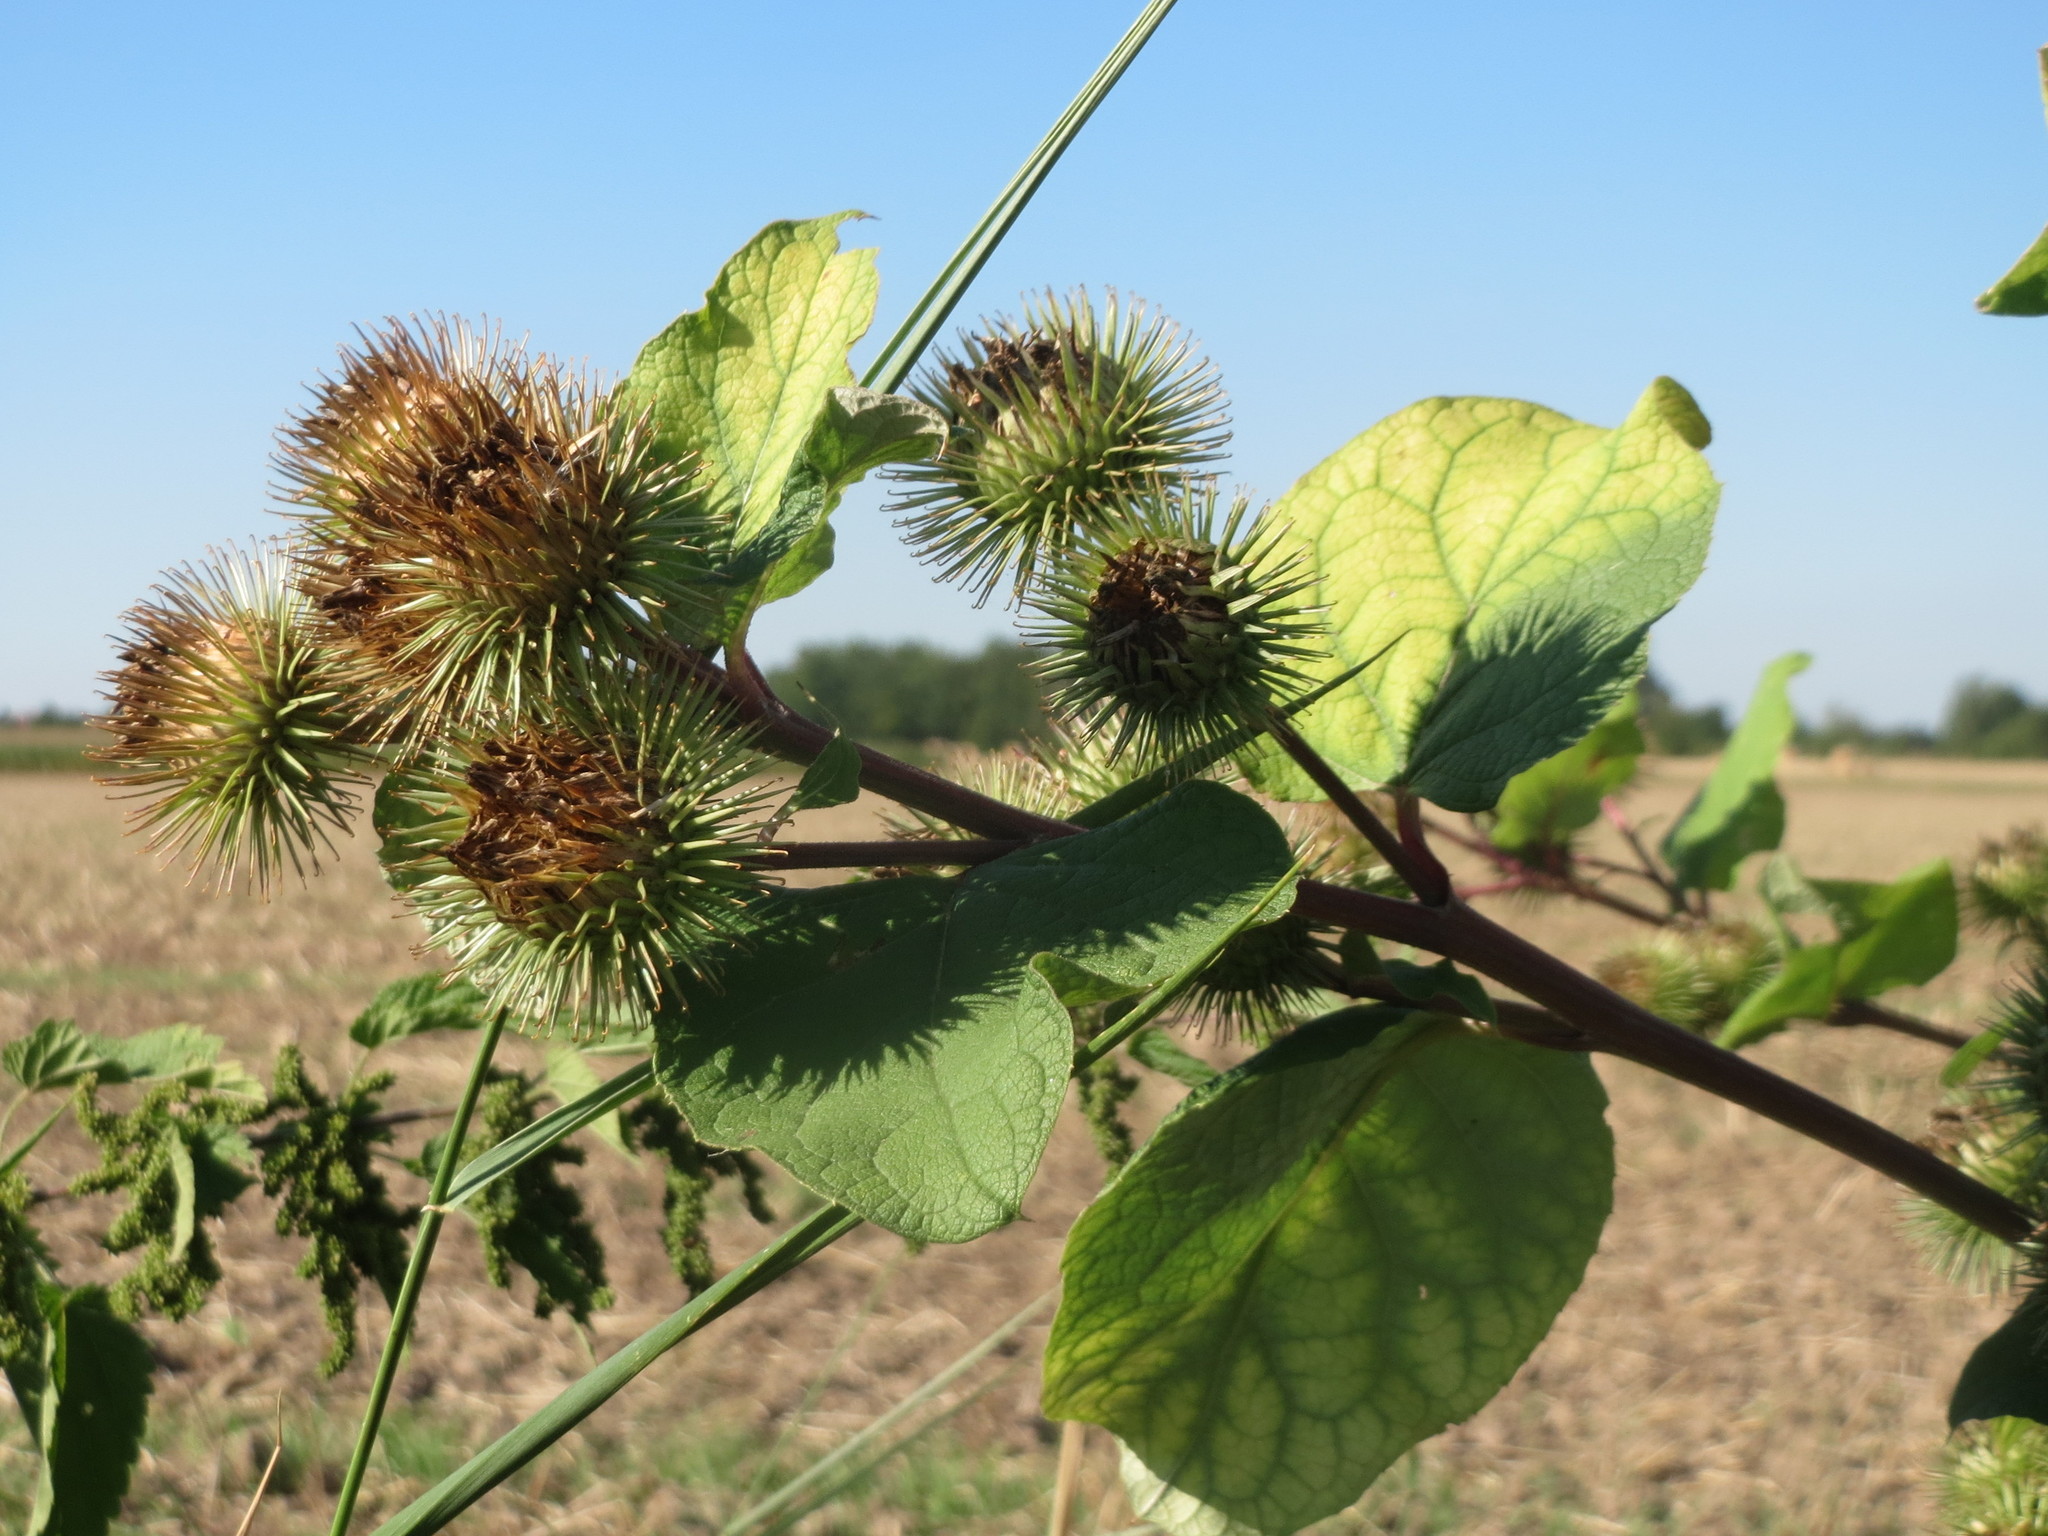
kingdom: Plantae
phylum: Tracheophyta
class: Magnoliopsida
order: Asterales
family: Asteraceae
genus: Arctium
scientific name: Arctium lappa
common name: Greater burdock
